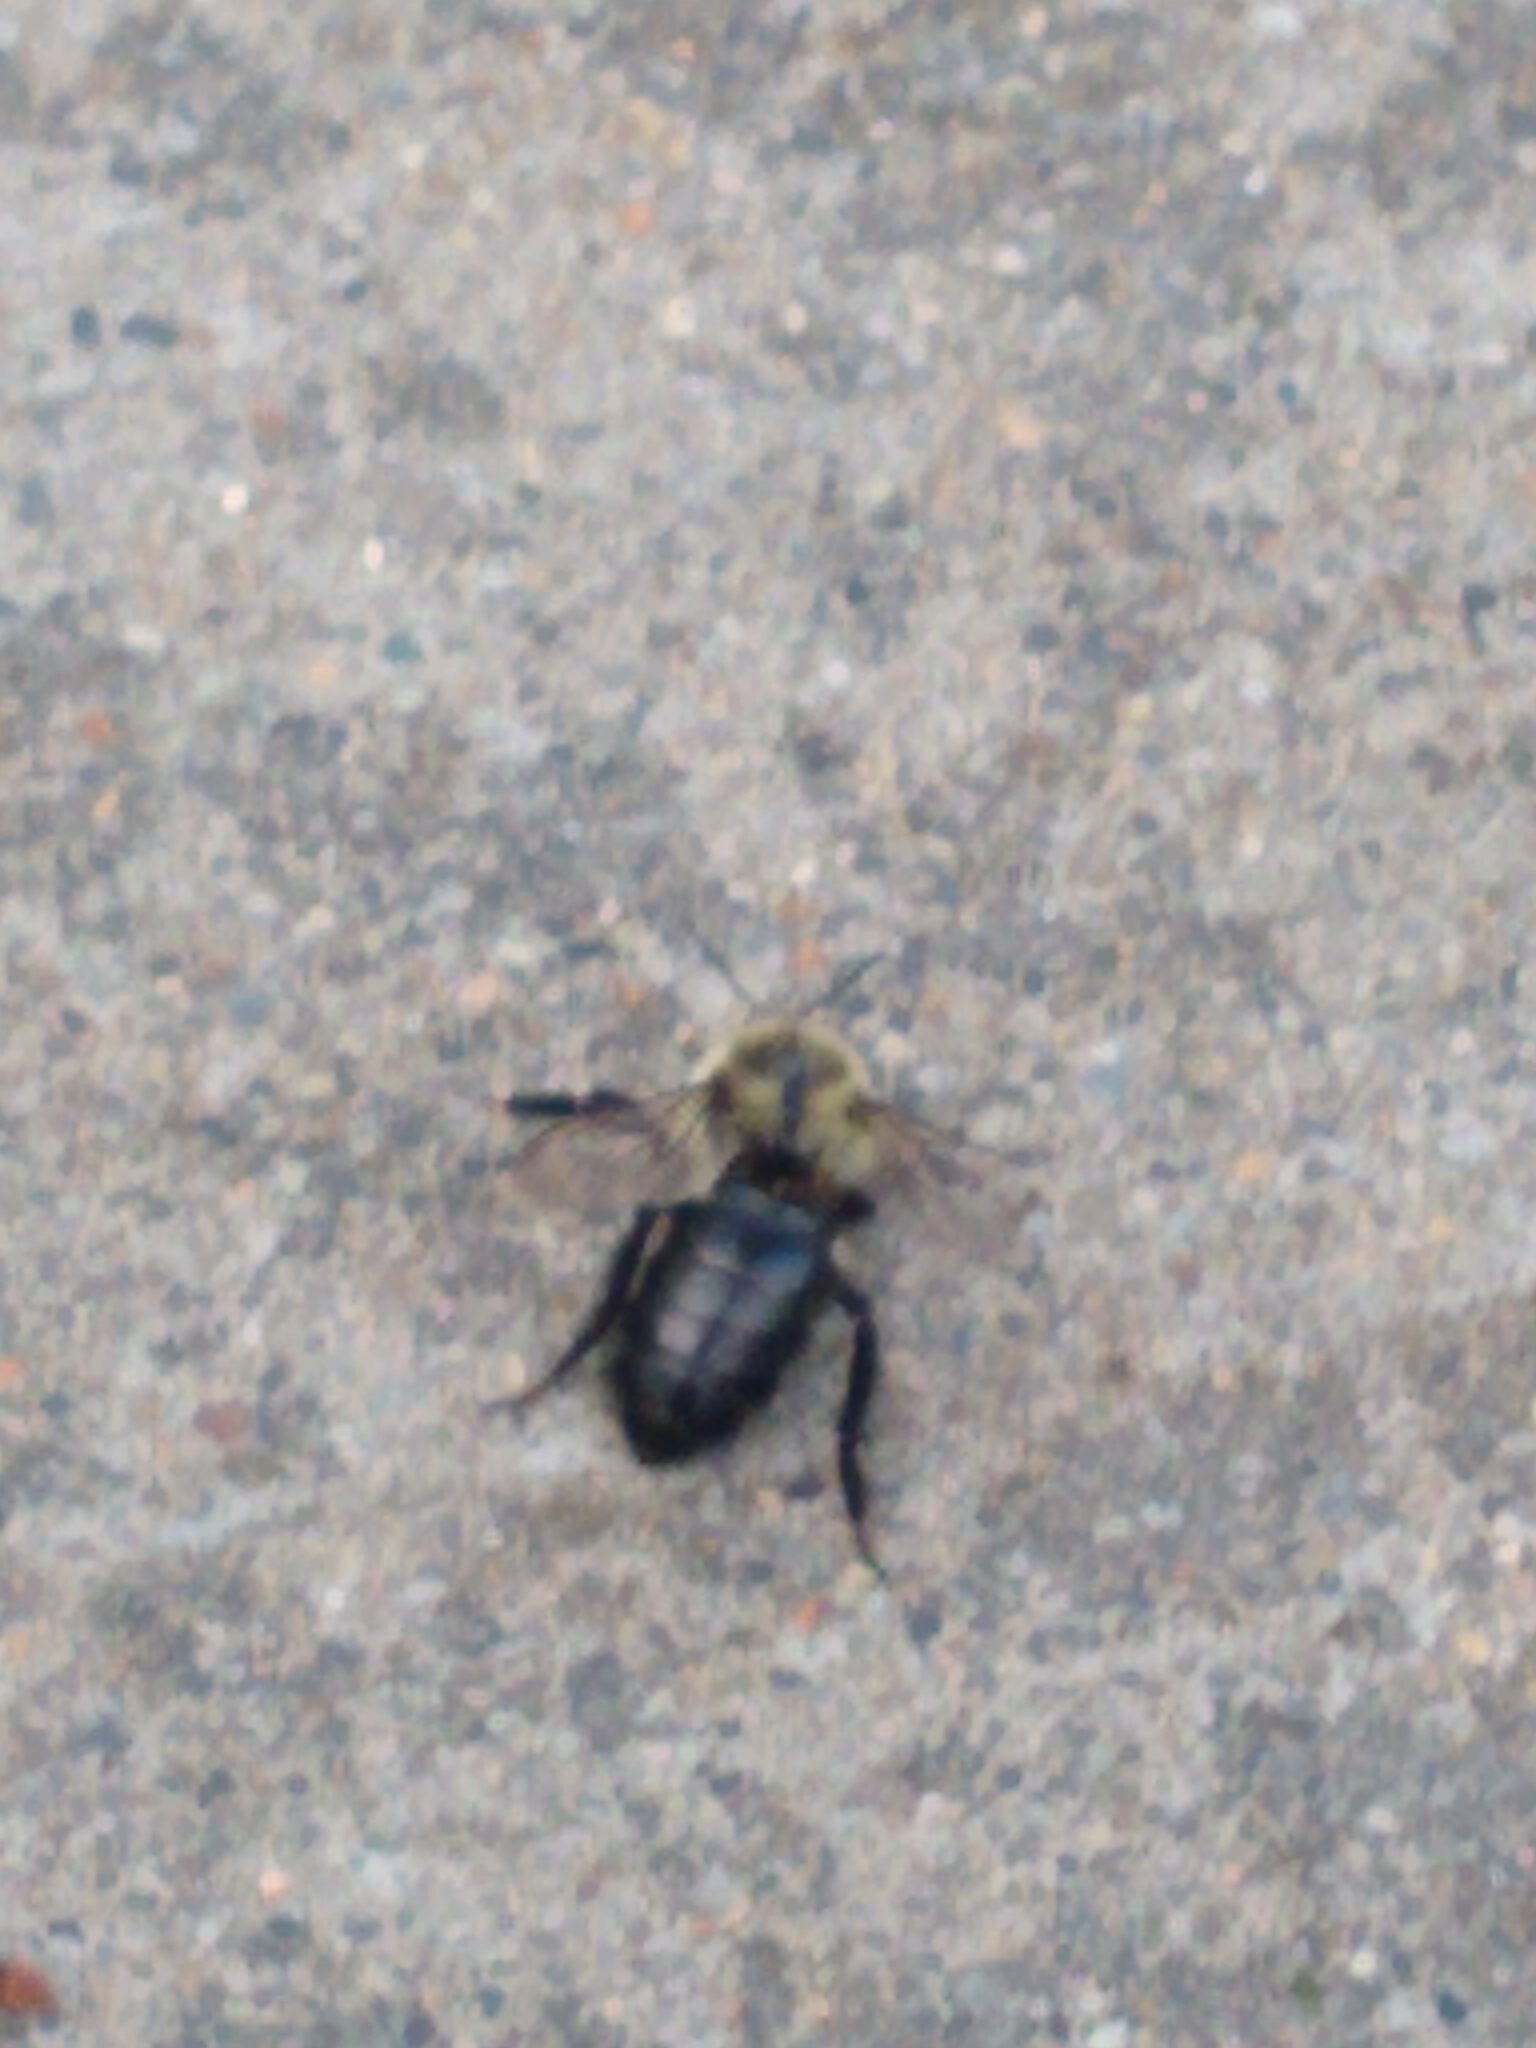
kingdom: Animalia
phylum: Arthropoda
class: Insecta
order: Hymenoptera
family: Apidae
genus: Bombus
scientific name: Bombus impatiens
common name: Common eastern bumble bee
